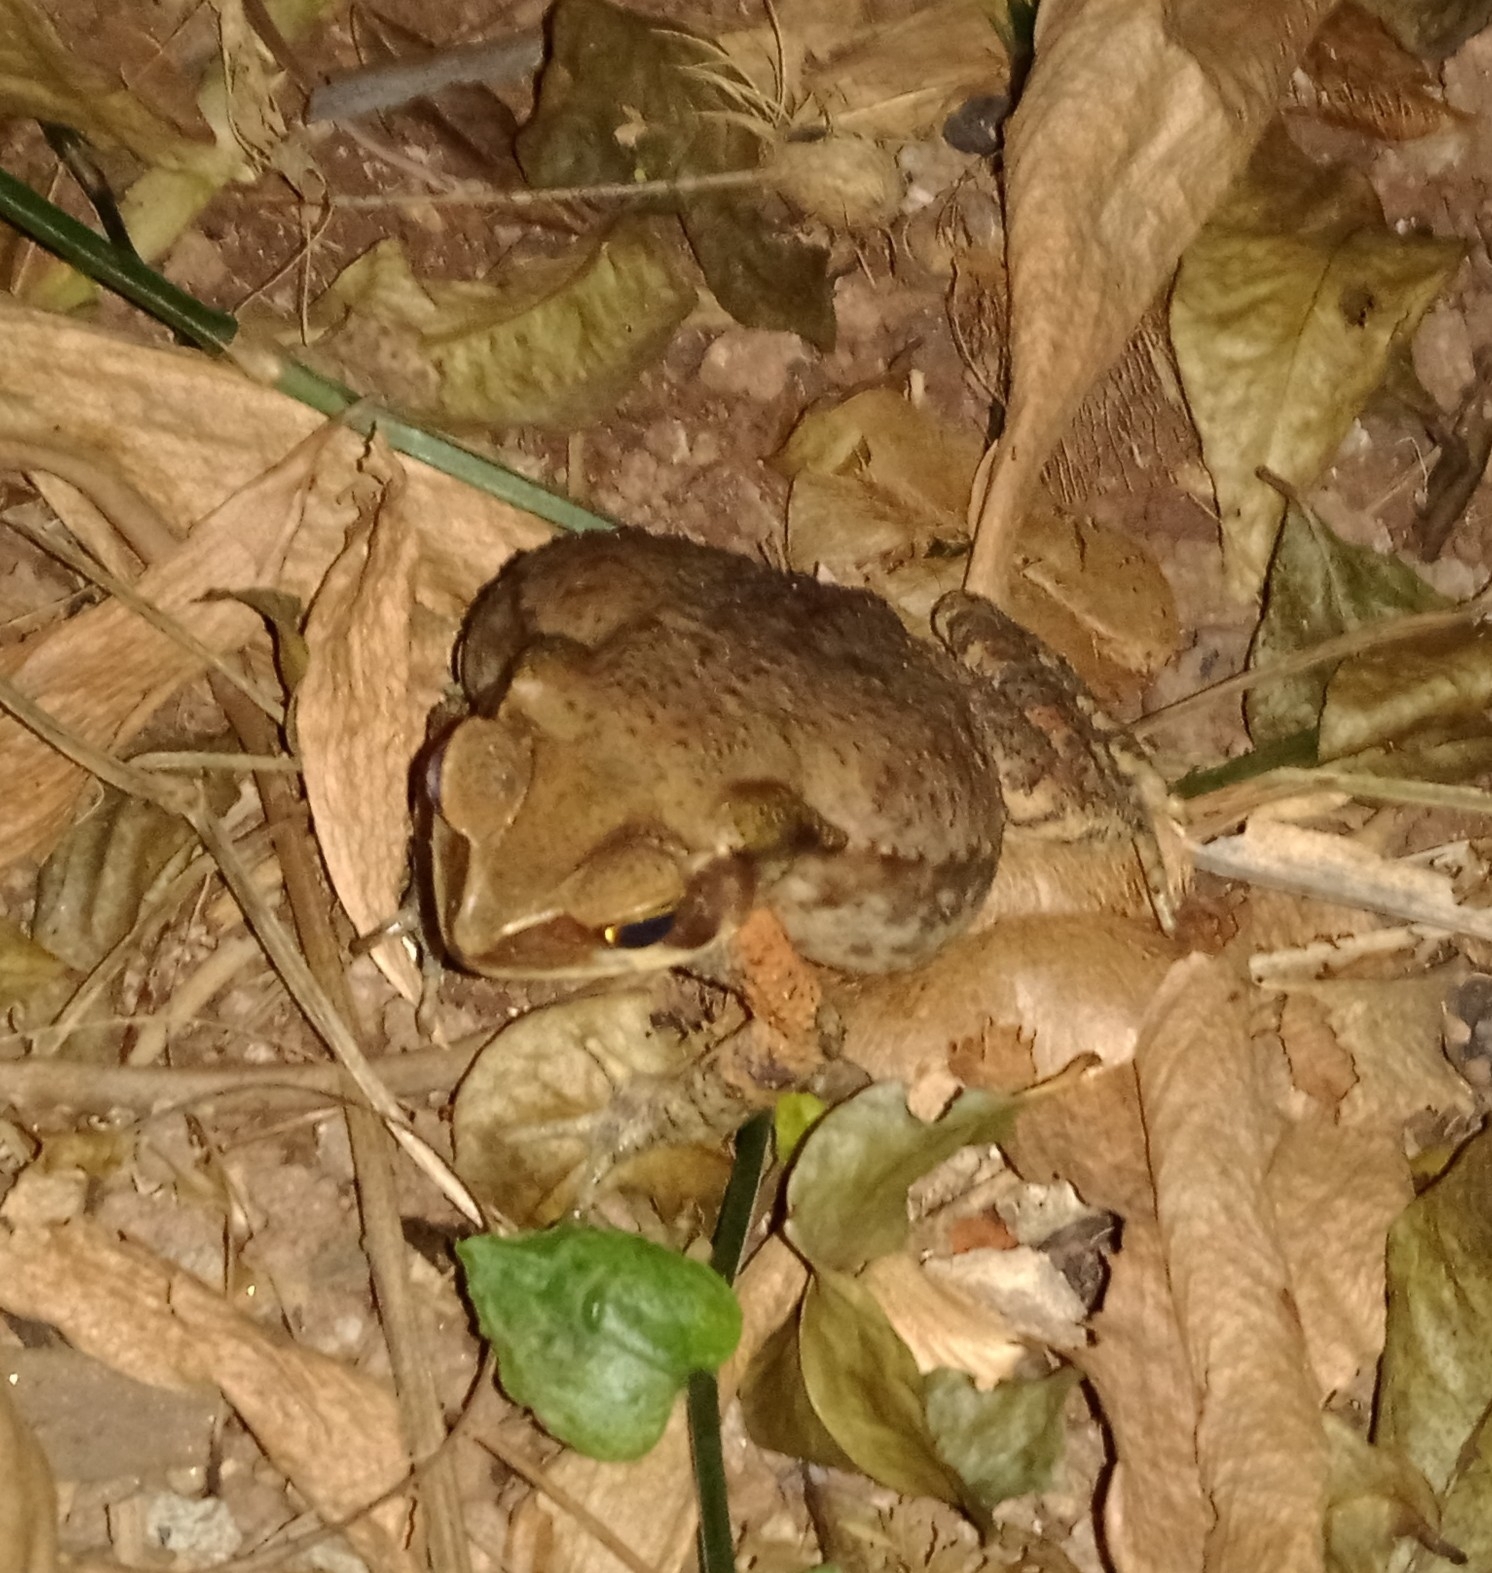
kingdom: Animalia
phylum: Chordata
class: Amphibia
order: Anura
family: Bufonidae
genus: Rhinella
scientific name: Rhinella ornata
